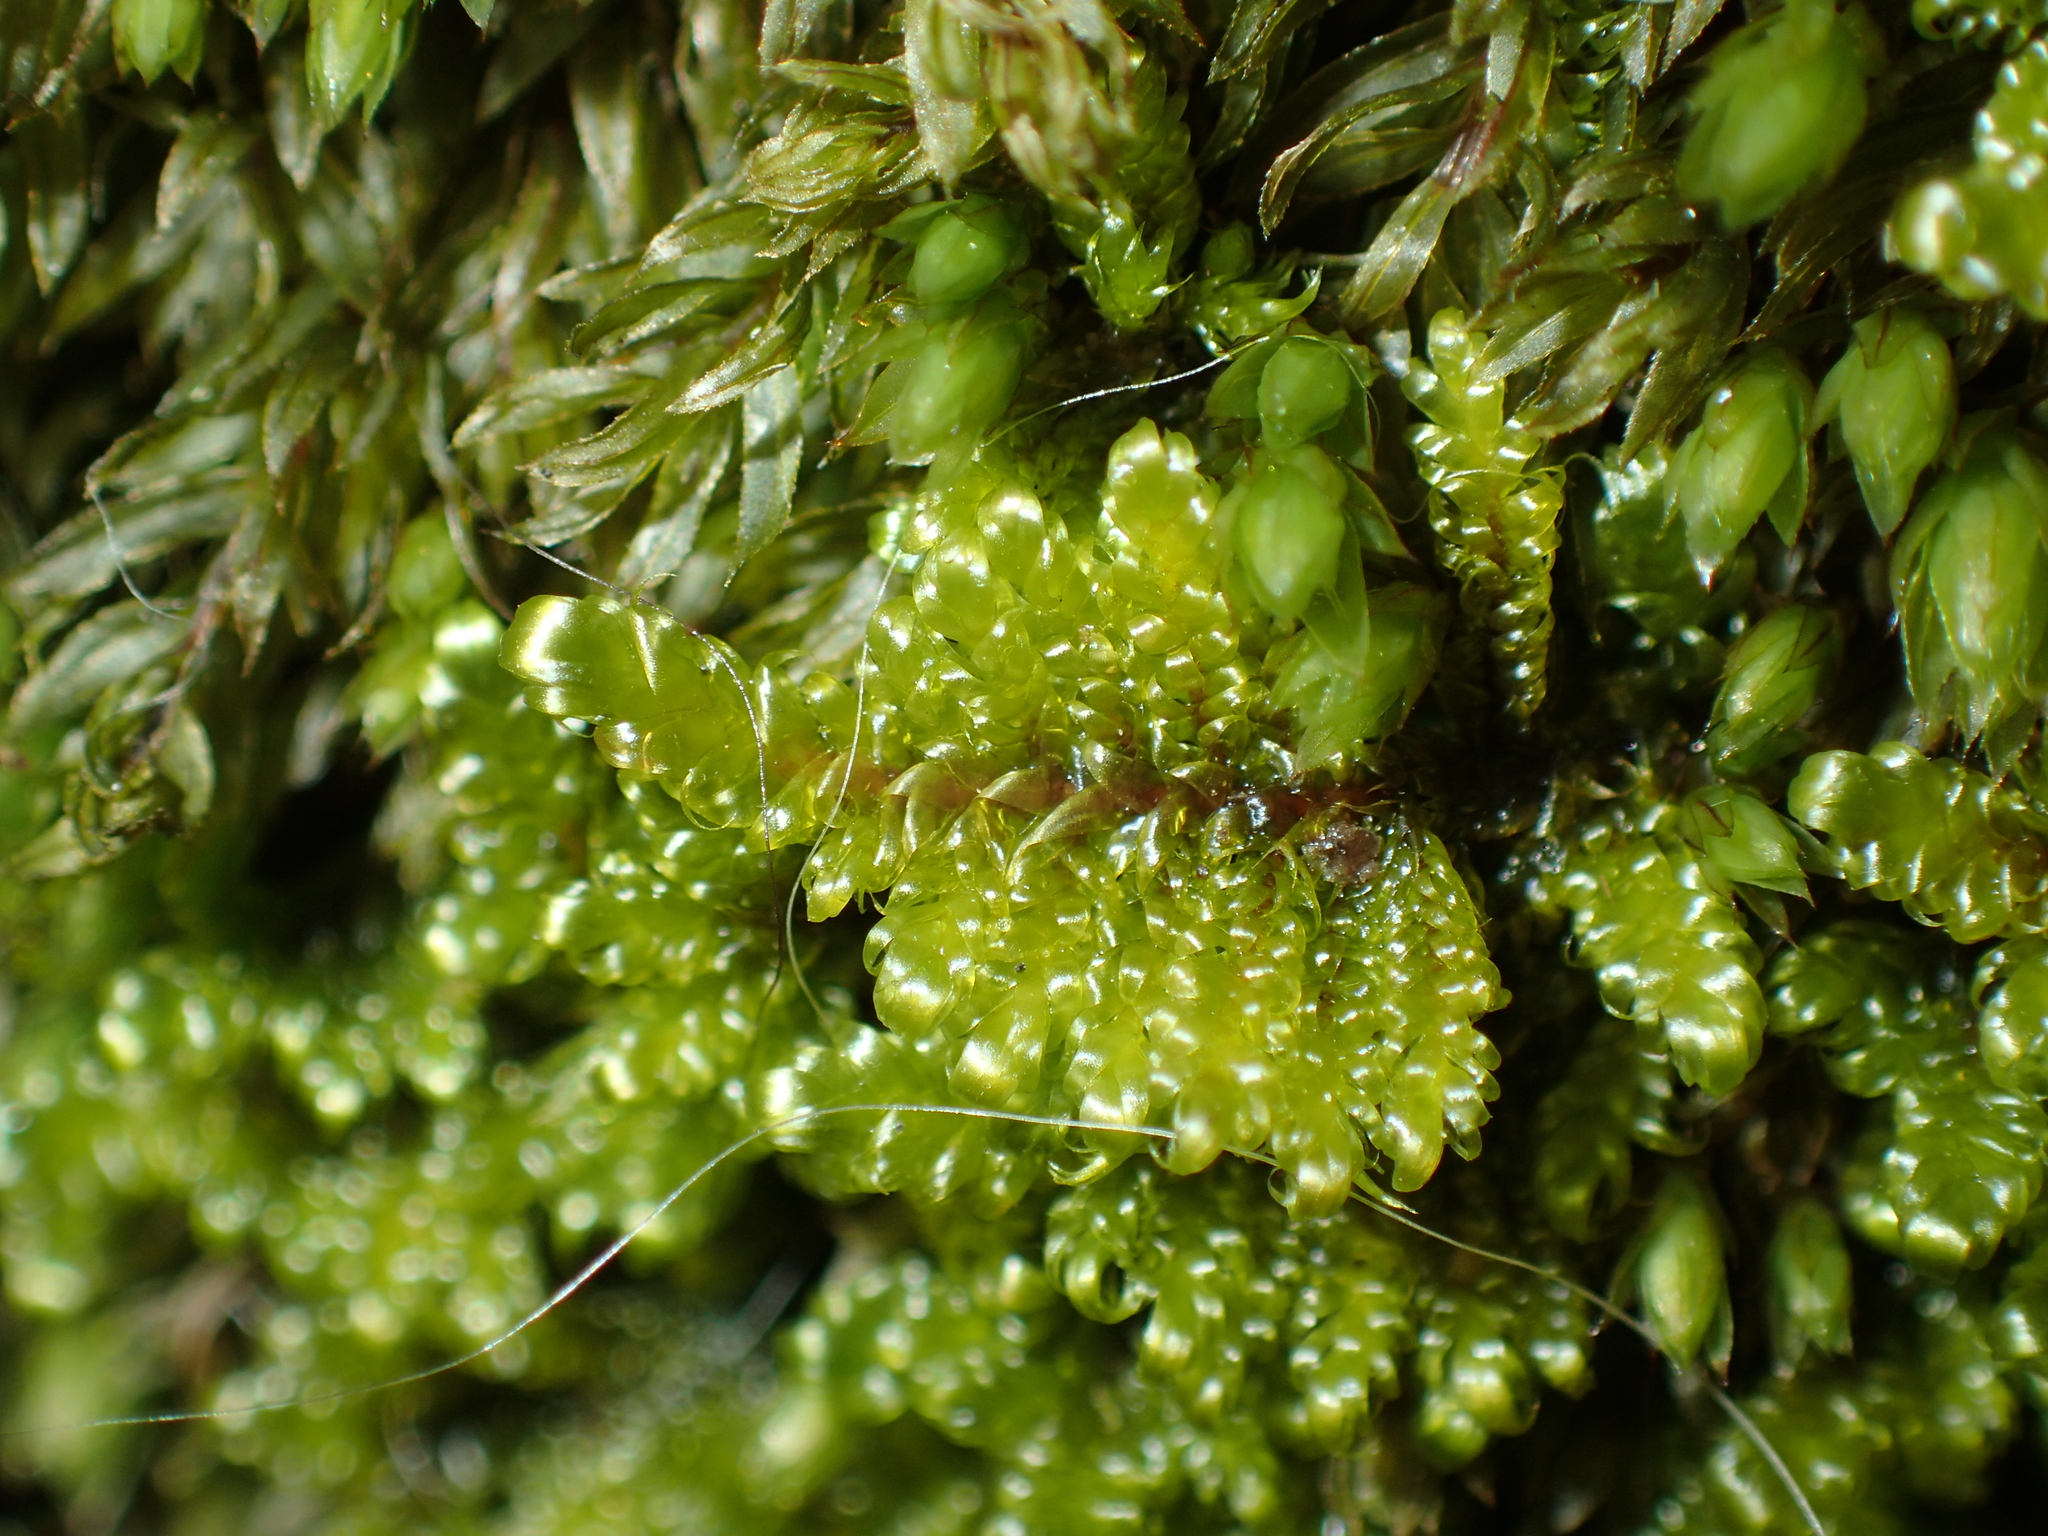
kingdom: Plantae
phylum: Bryophyta
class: Bryopsida
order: Hypnales
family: Callicladiaceae
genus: Callicladium
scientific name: Callicladium imponens
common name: Brocade moss
